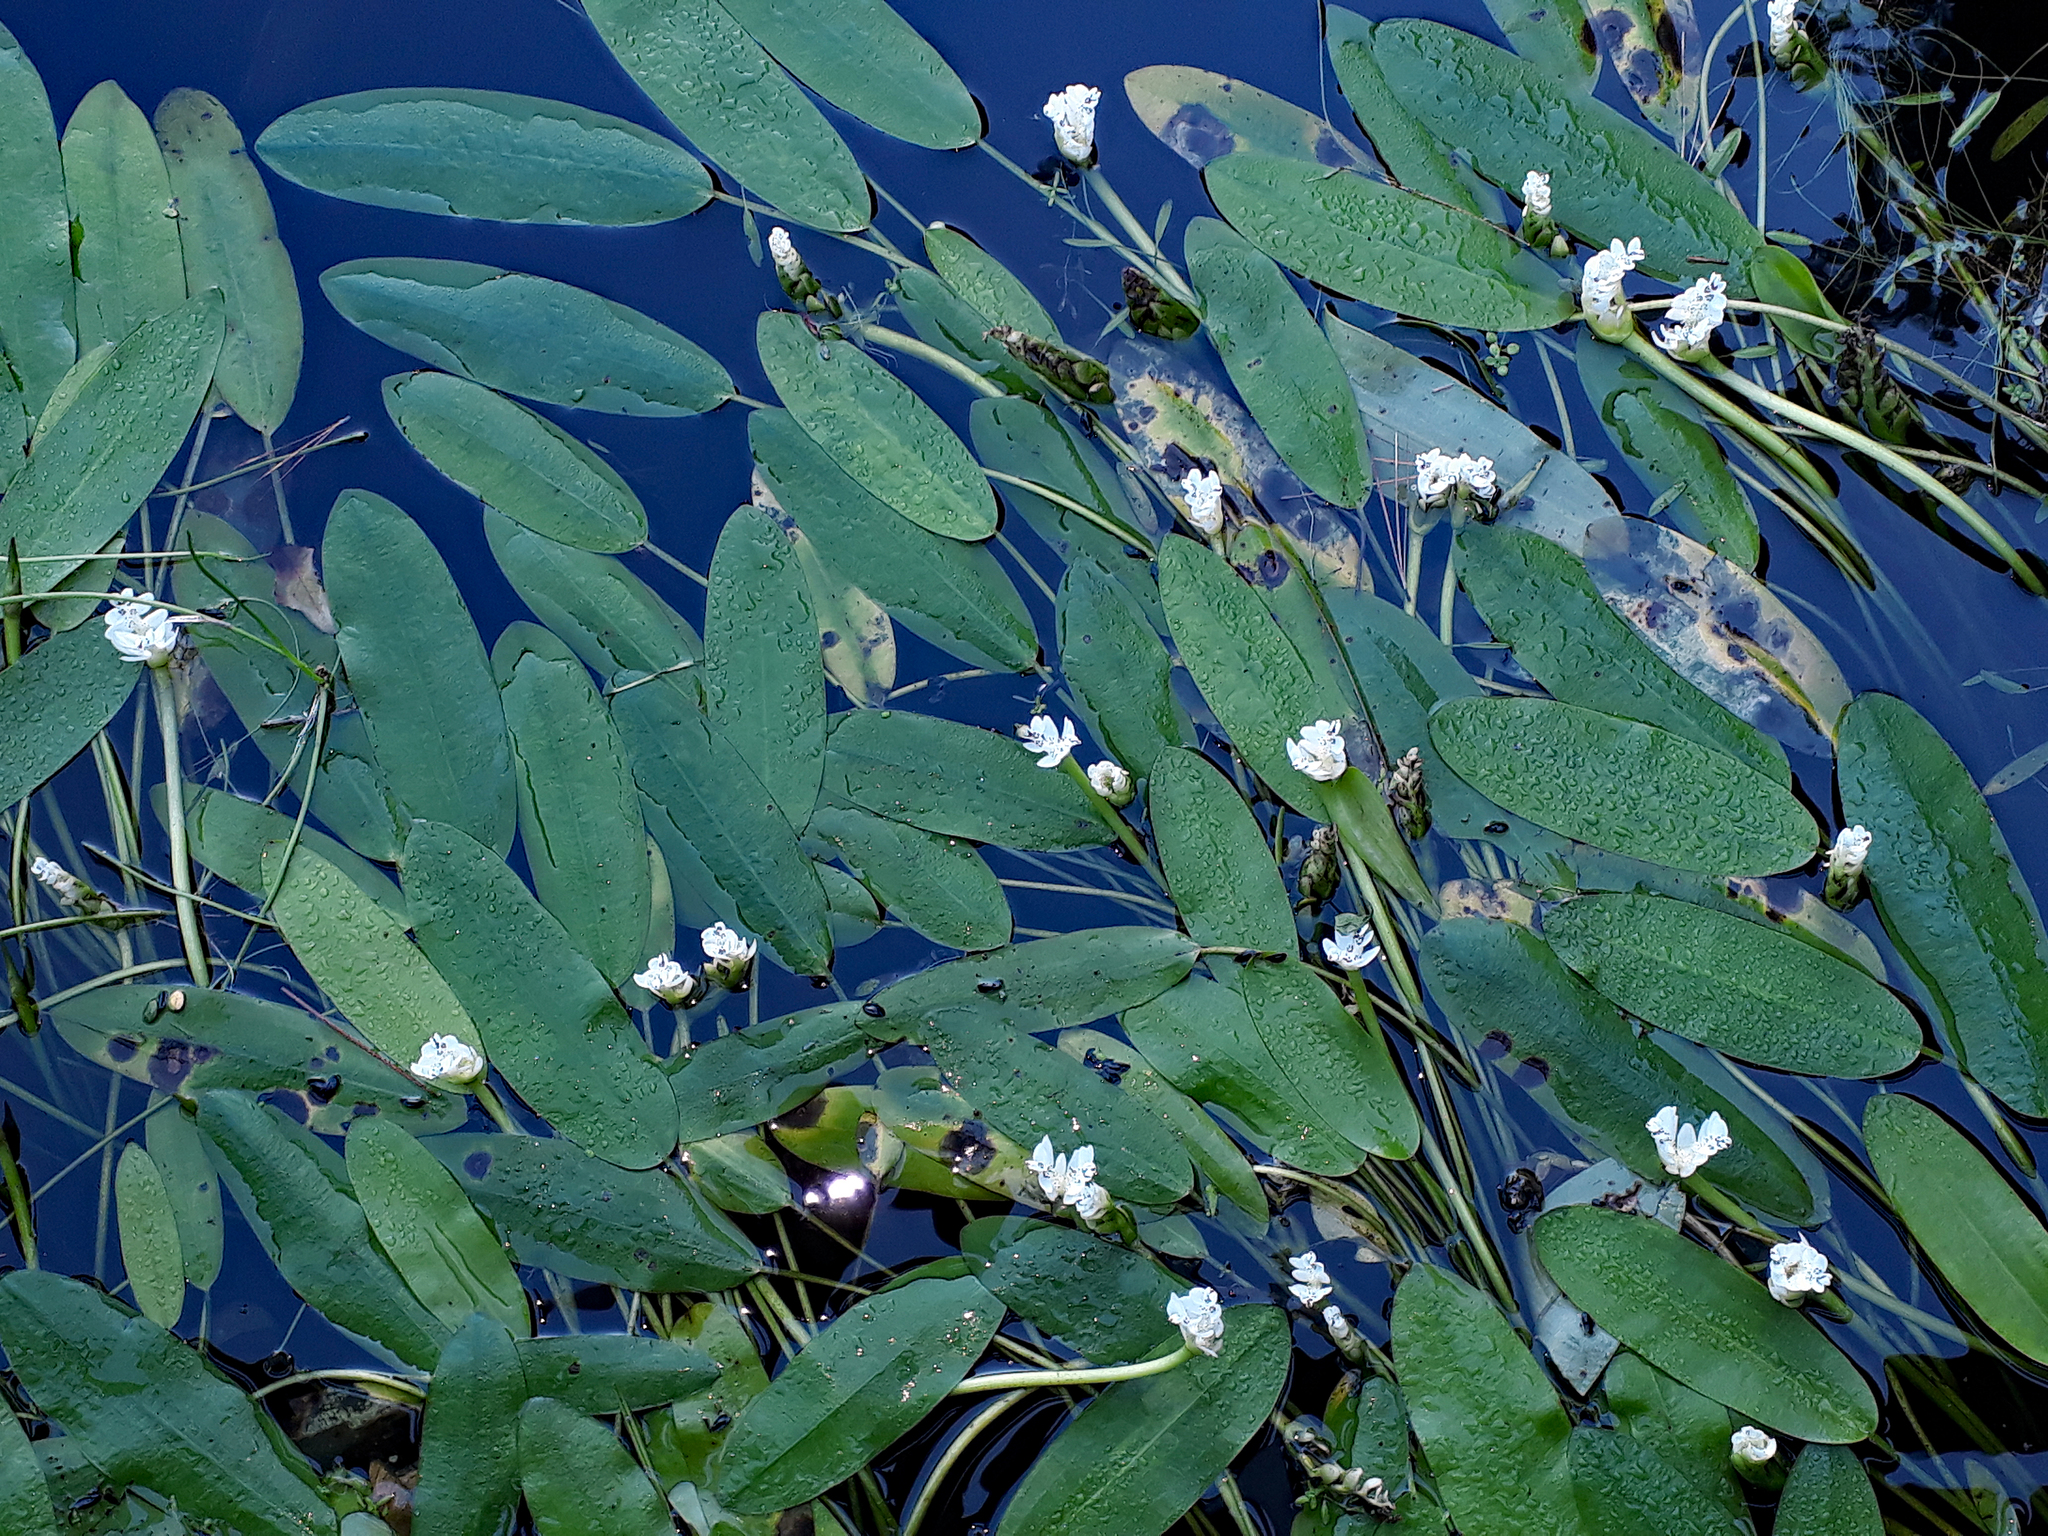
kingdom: Plantae
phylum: Tracheophyta
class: Liliopsida
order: Alismatales
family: Aponogetonaceae
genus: Aponogeton
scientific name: Aponogeton distachyos
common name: Cape-pondweed
